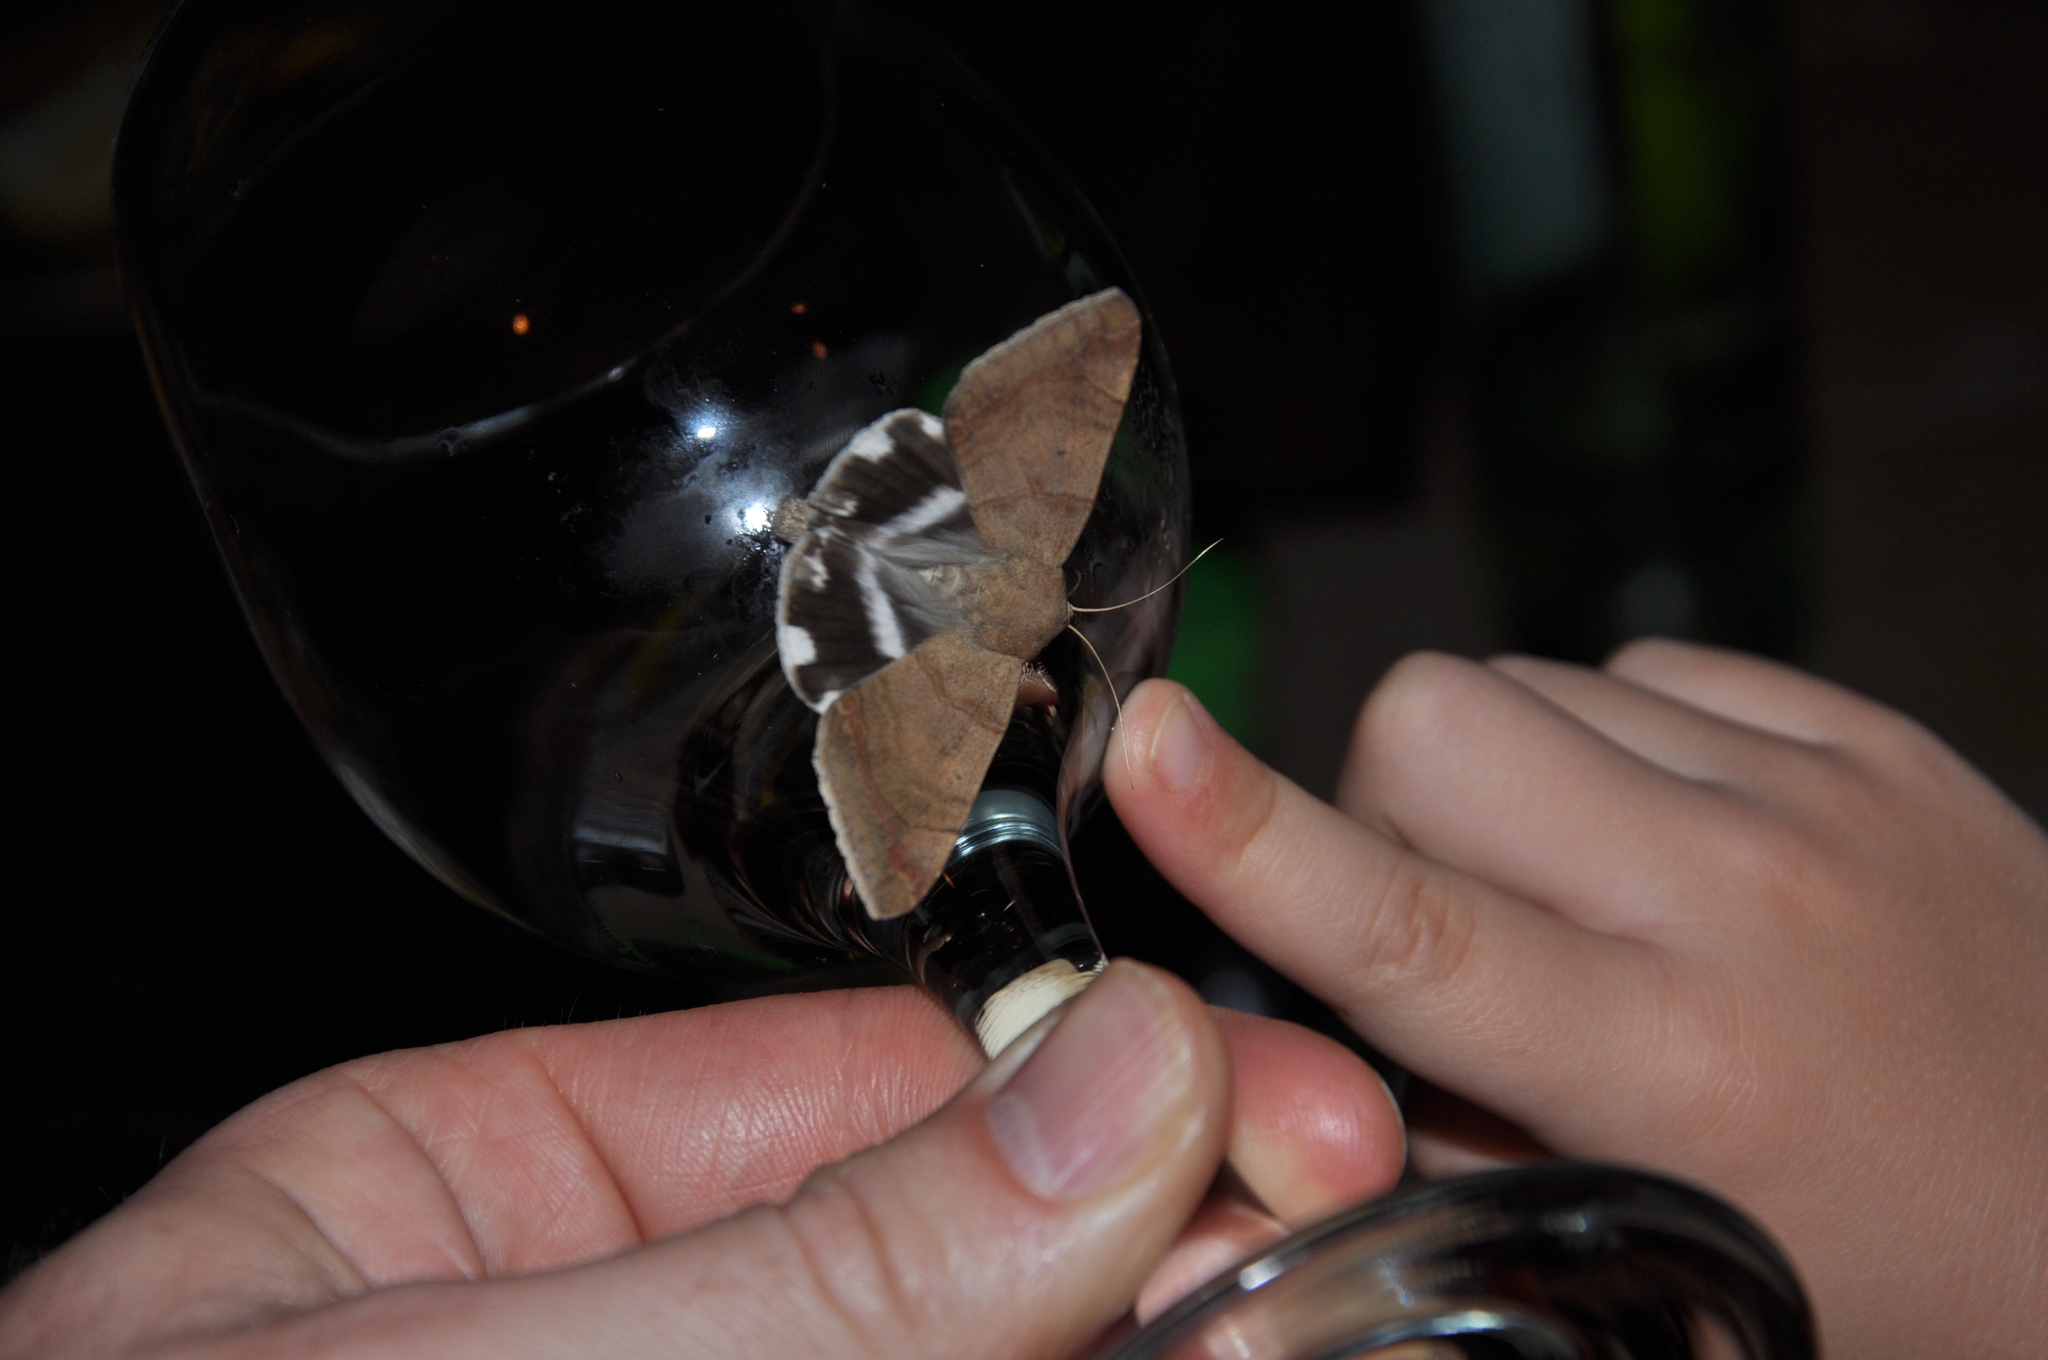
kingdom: Animalia
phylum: Arthropoda
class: Insecta
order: Lepidoptera
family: Erebidae
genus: Achaea
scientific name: Achaea janata
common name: Croton caterpillar
